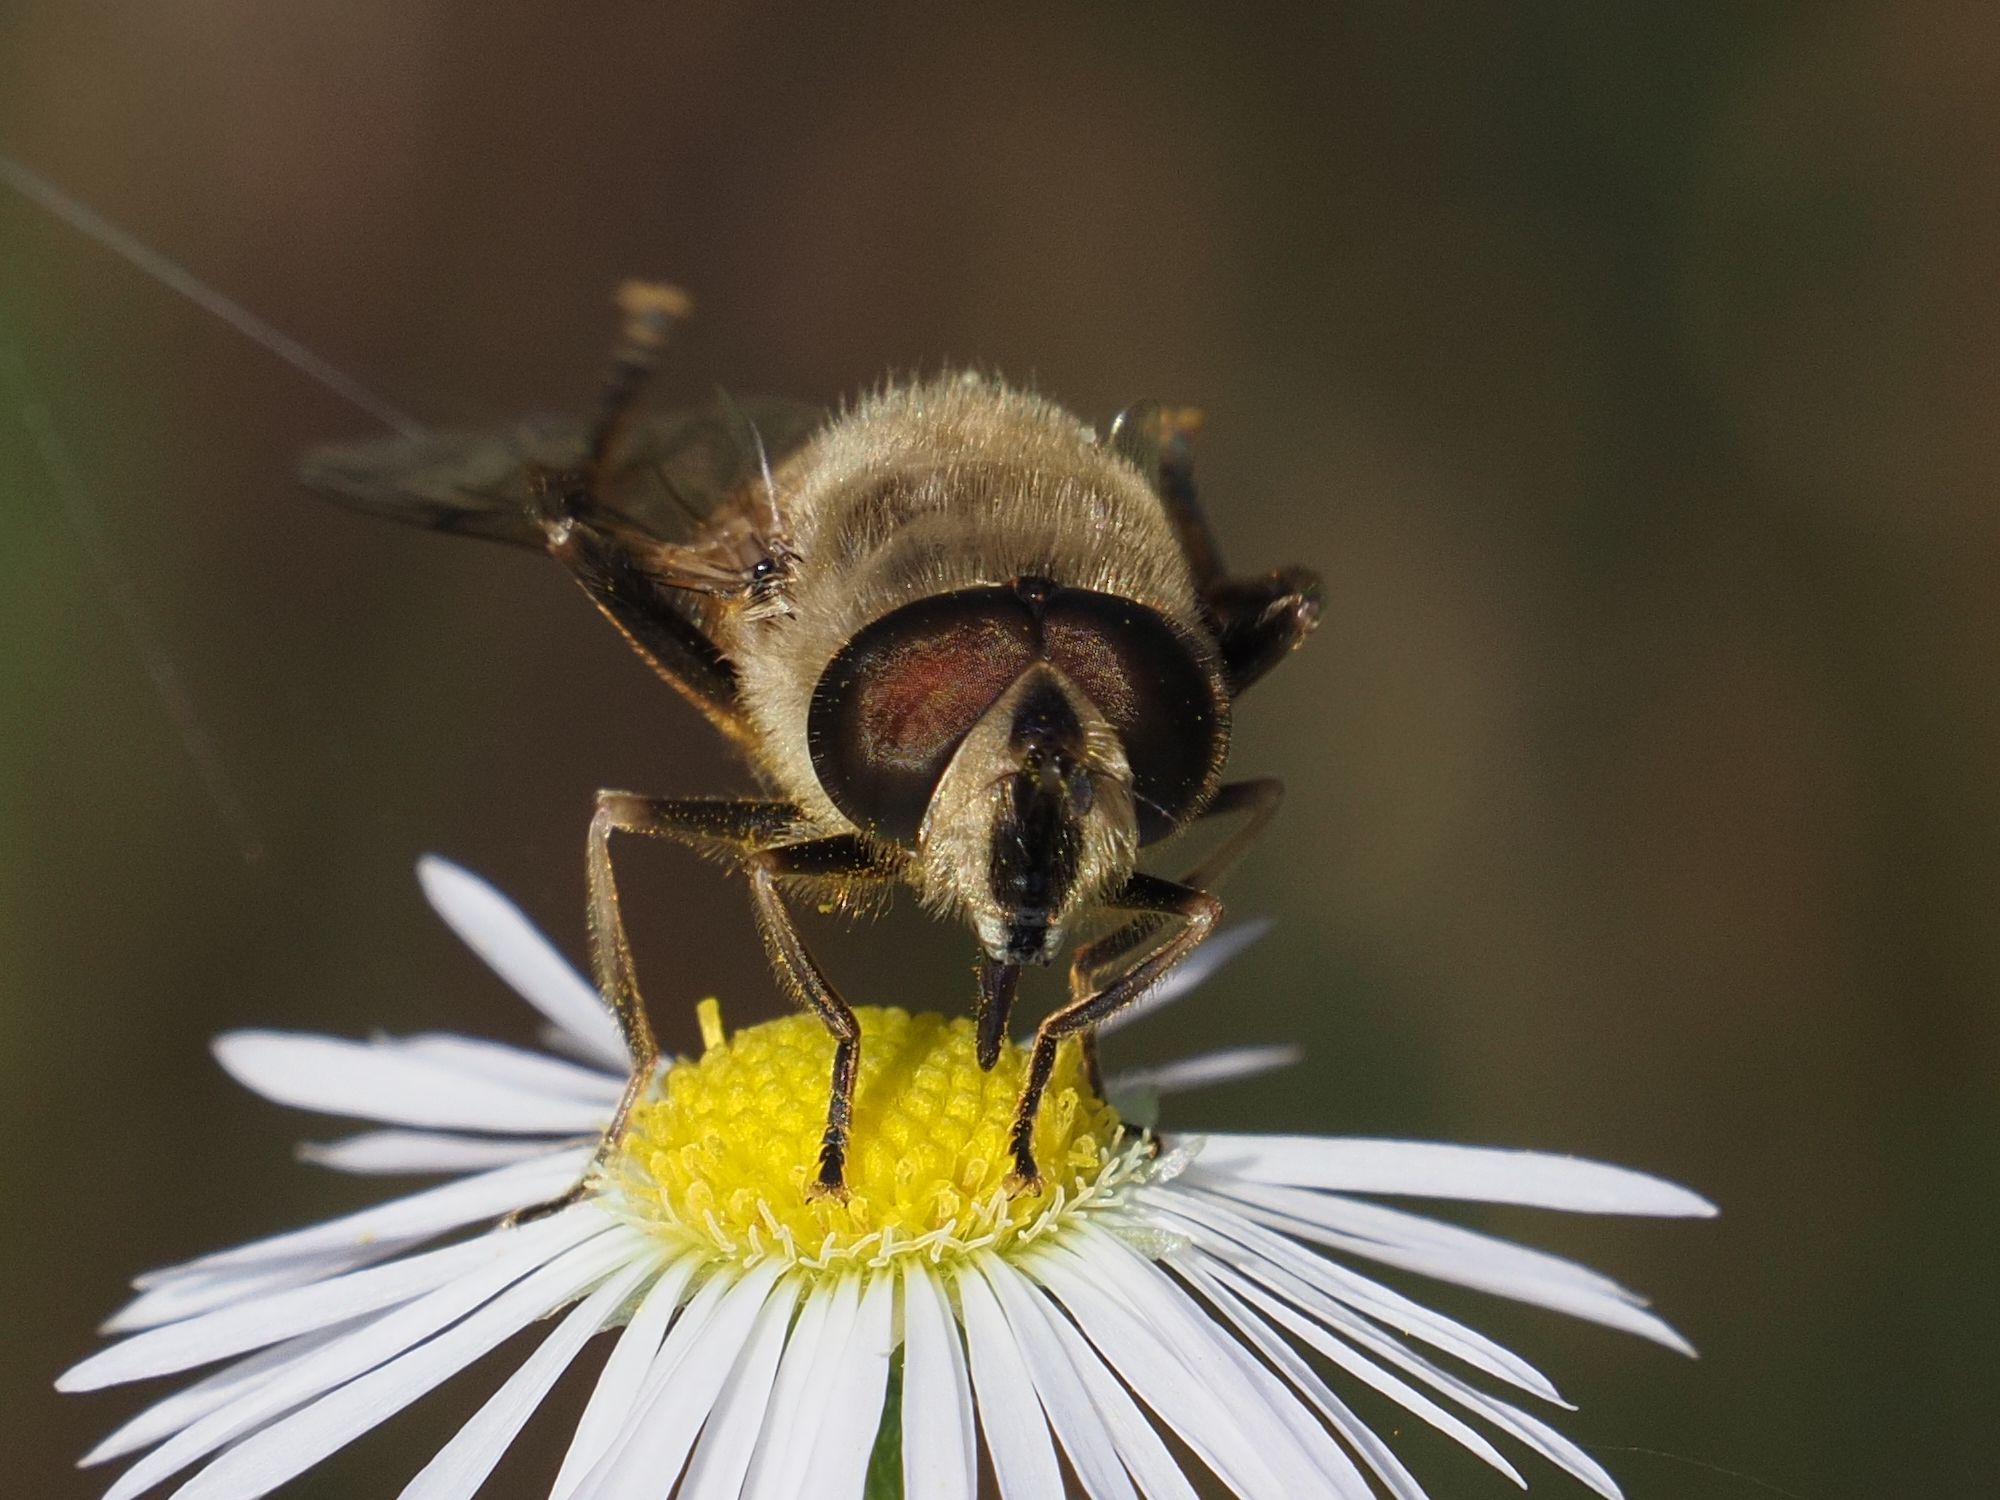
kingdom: Animalia
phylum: Arthropoda
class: Insecta
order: Diptera
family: Syrphidae
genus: Eristalis
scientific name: Eristalis tenax
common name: Drone fly
